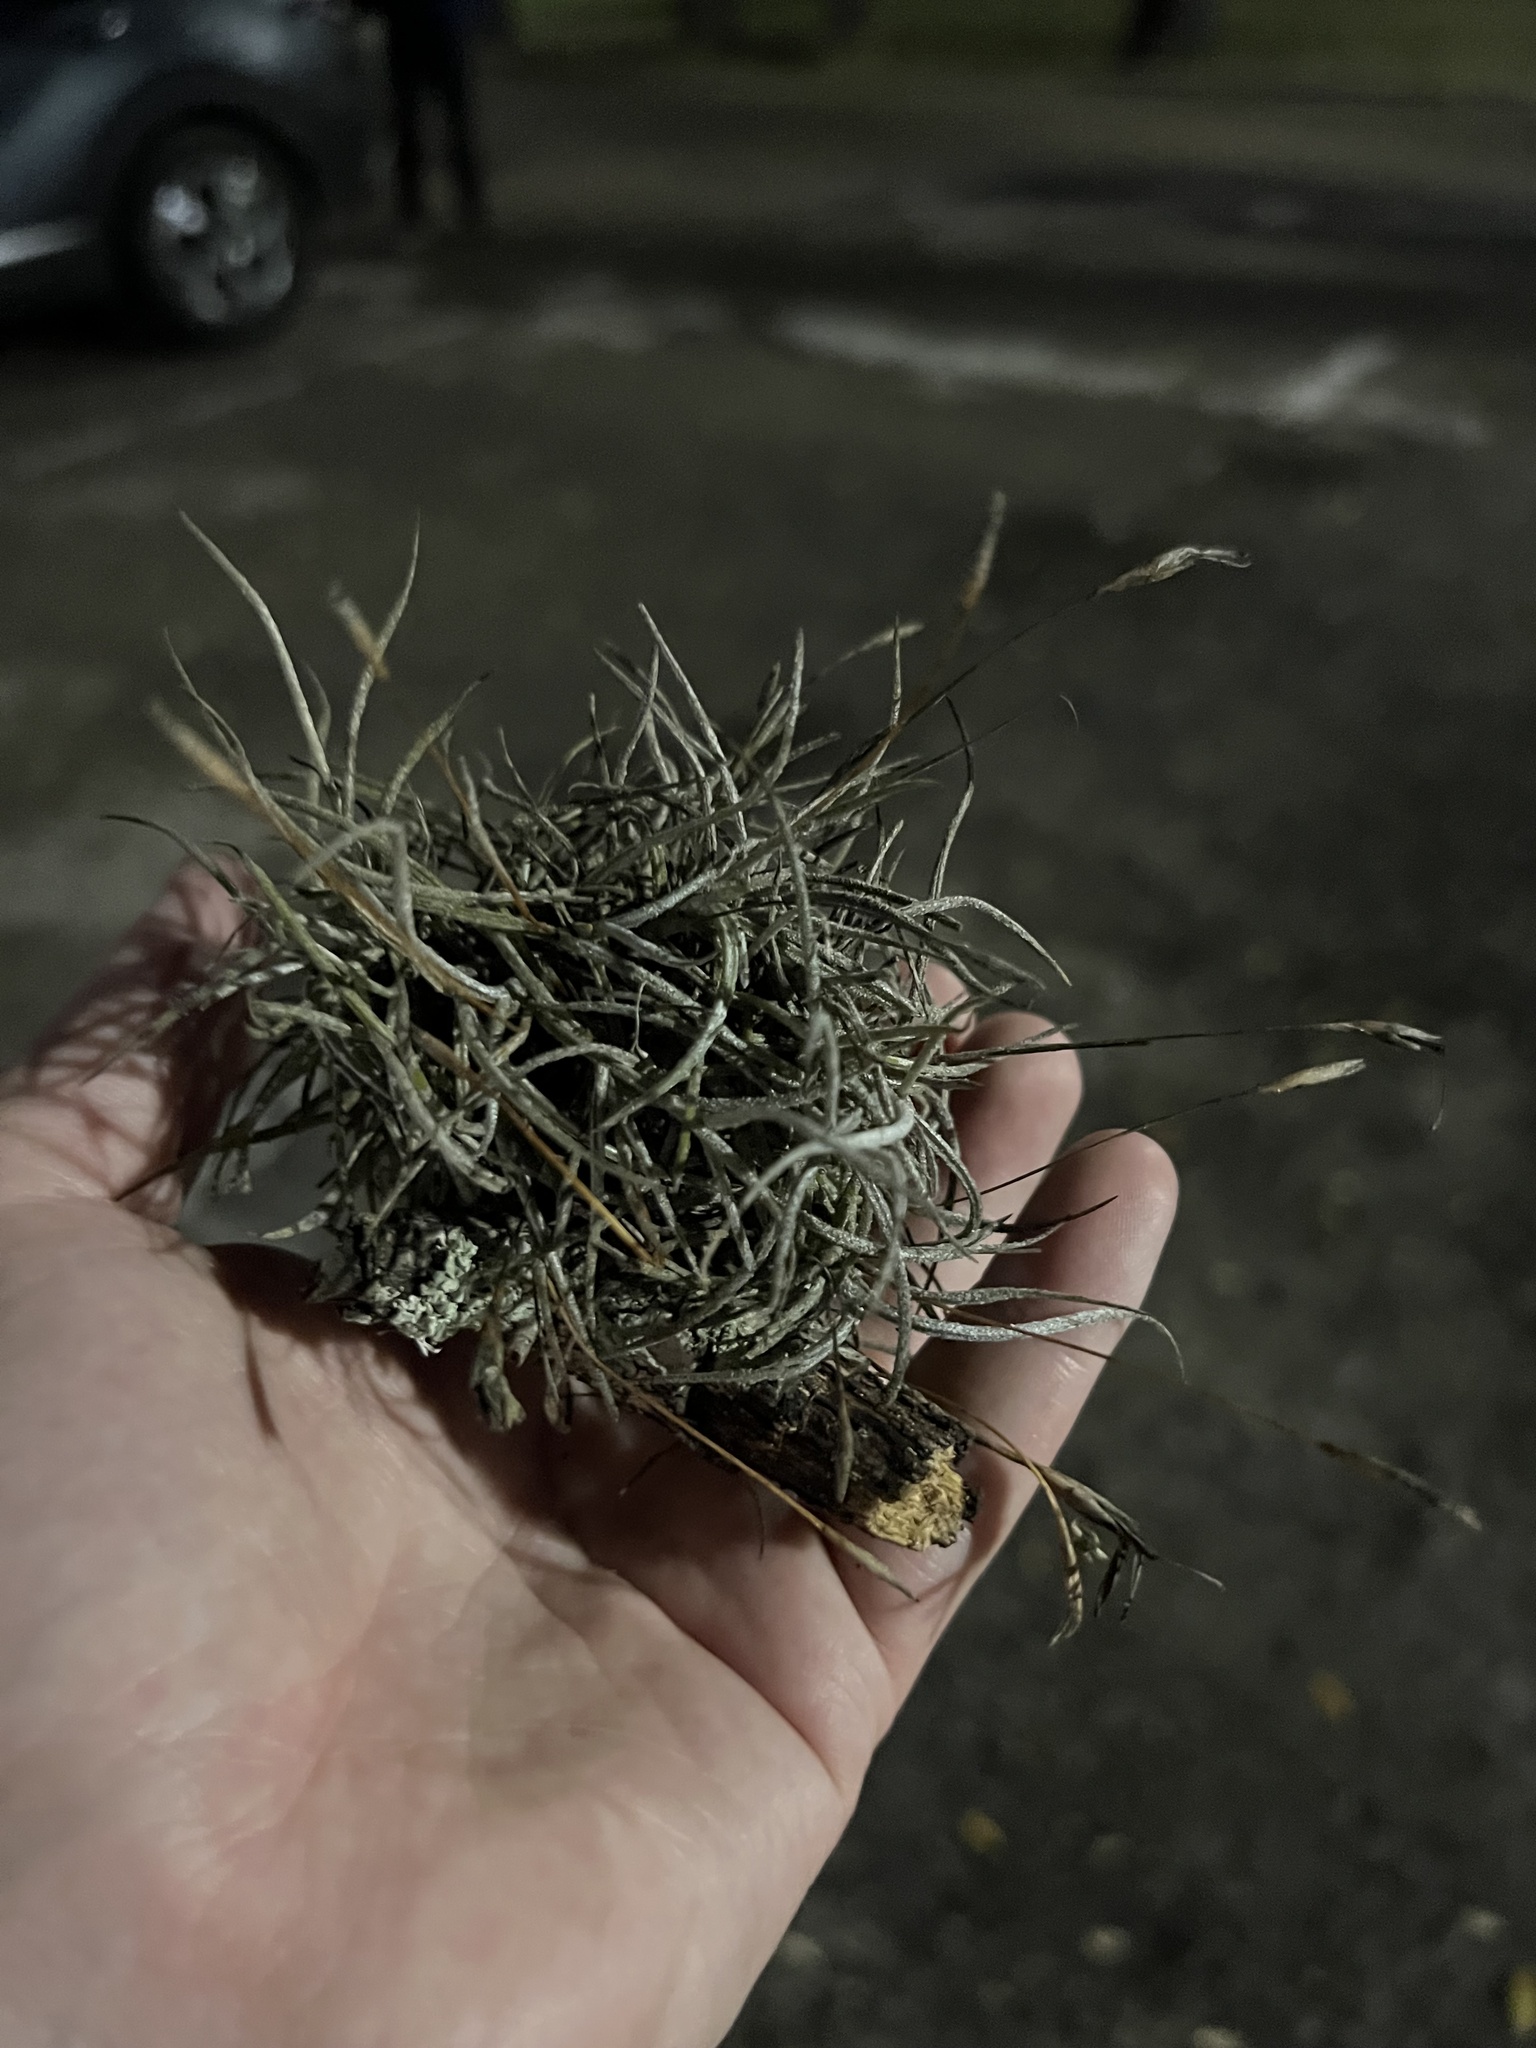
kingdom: Plantae
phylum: Tracheophyta
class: Liliopsida
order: Poales
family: Bromeliaceae
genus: Tillandsia
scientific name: Tillandsia recurvata
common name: Small ballmoss
